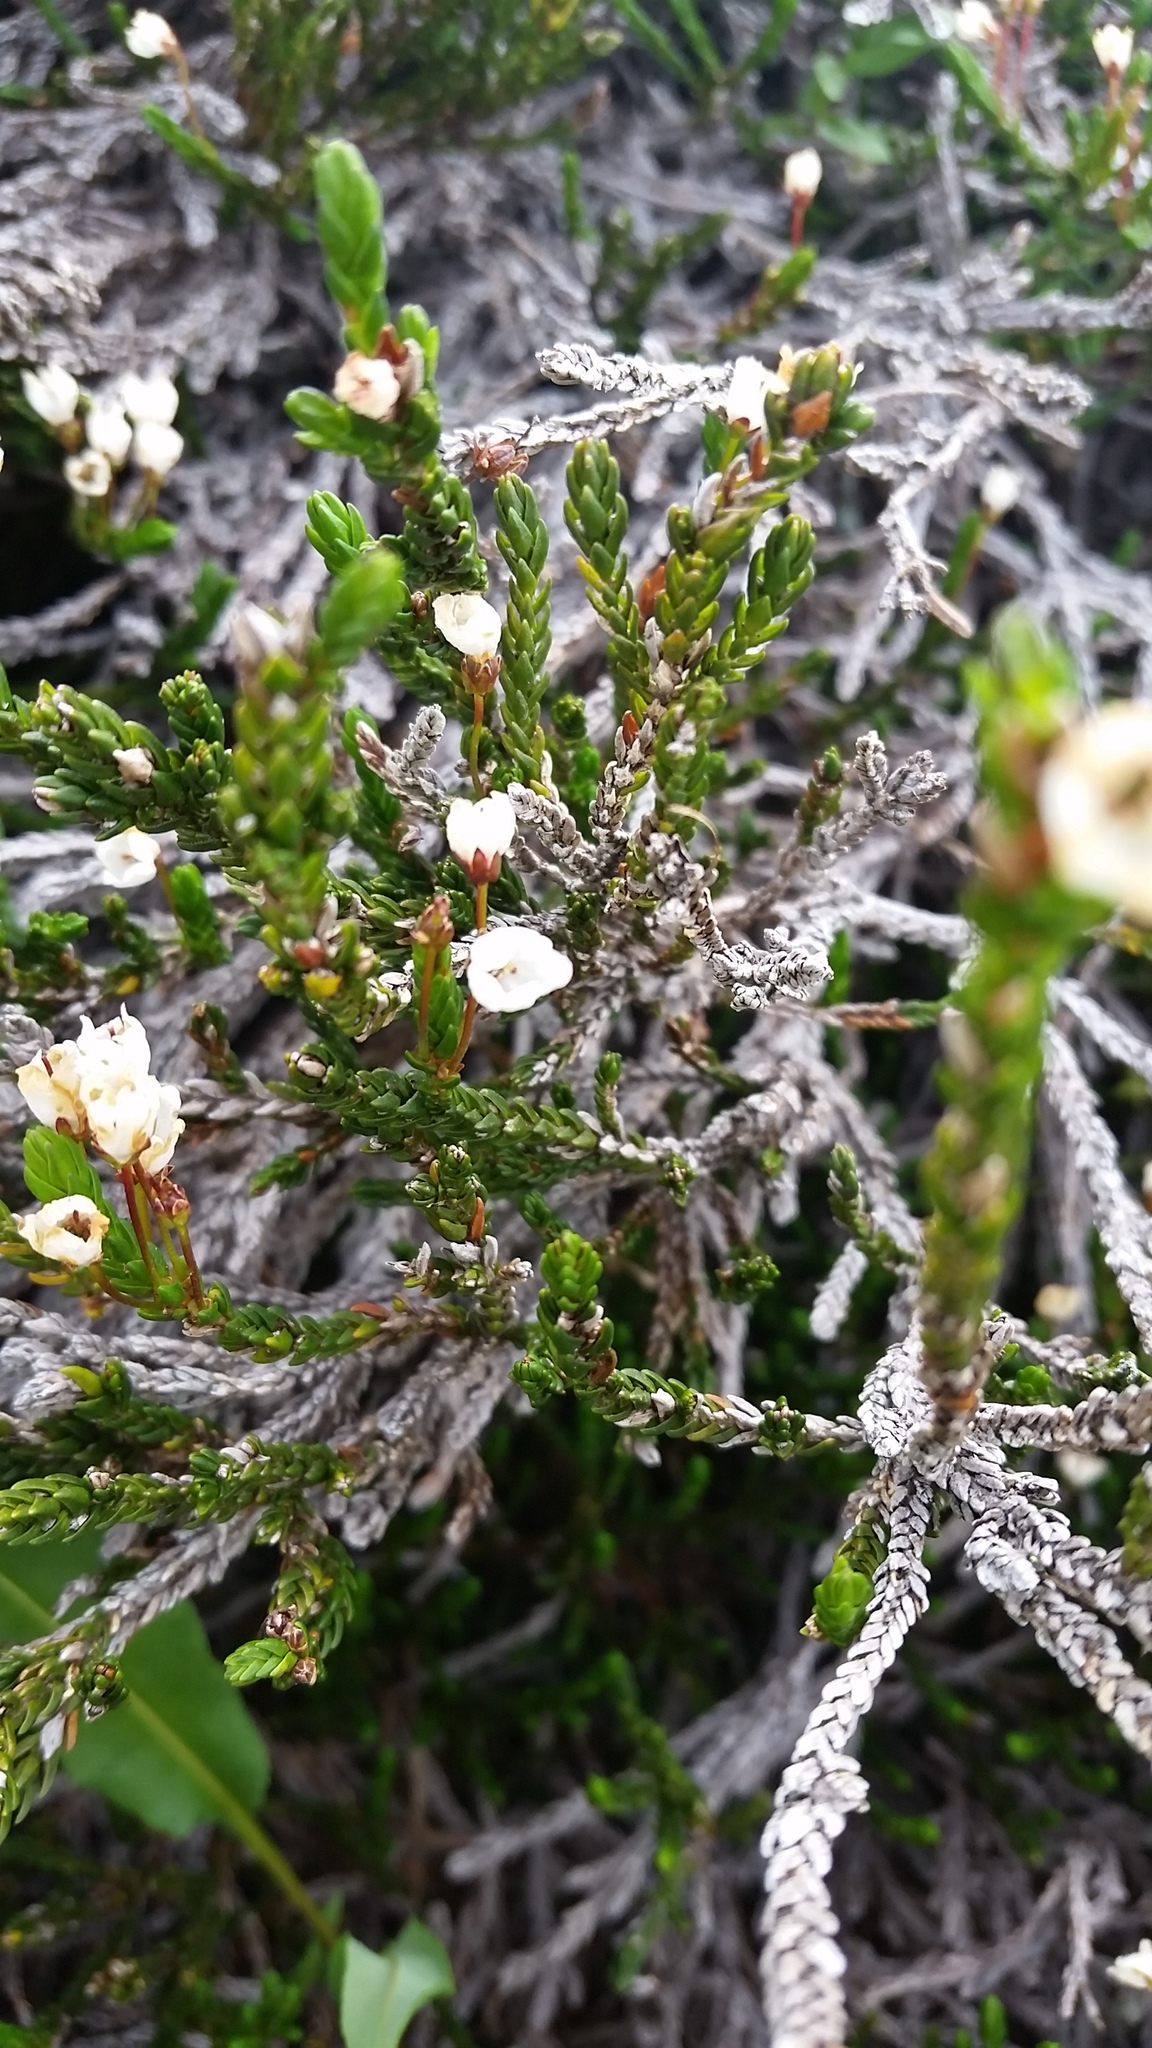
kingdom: Plantae
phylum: Tracheophyta
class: Magnoliopsida
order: Ericales
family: Ericaceae
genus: Cassiope
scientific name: Cassiope mertensiana
